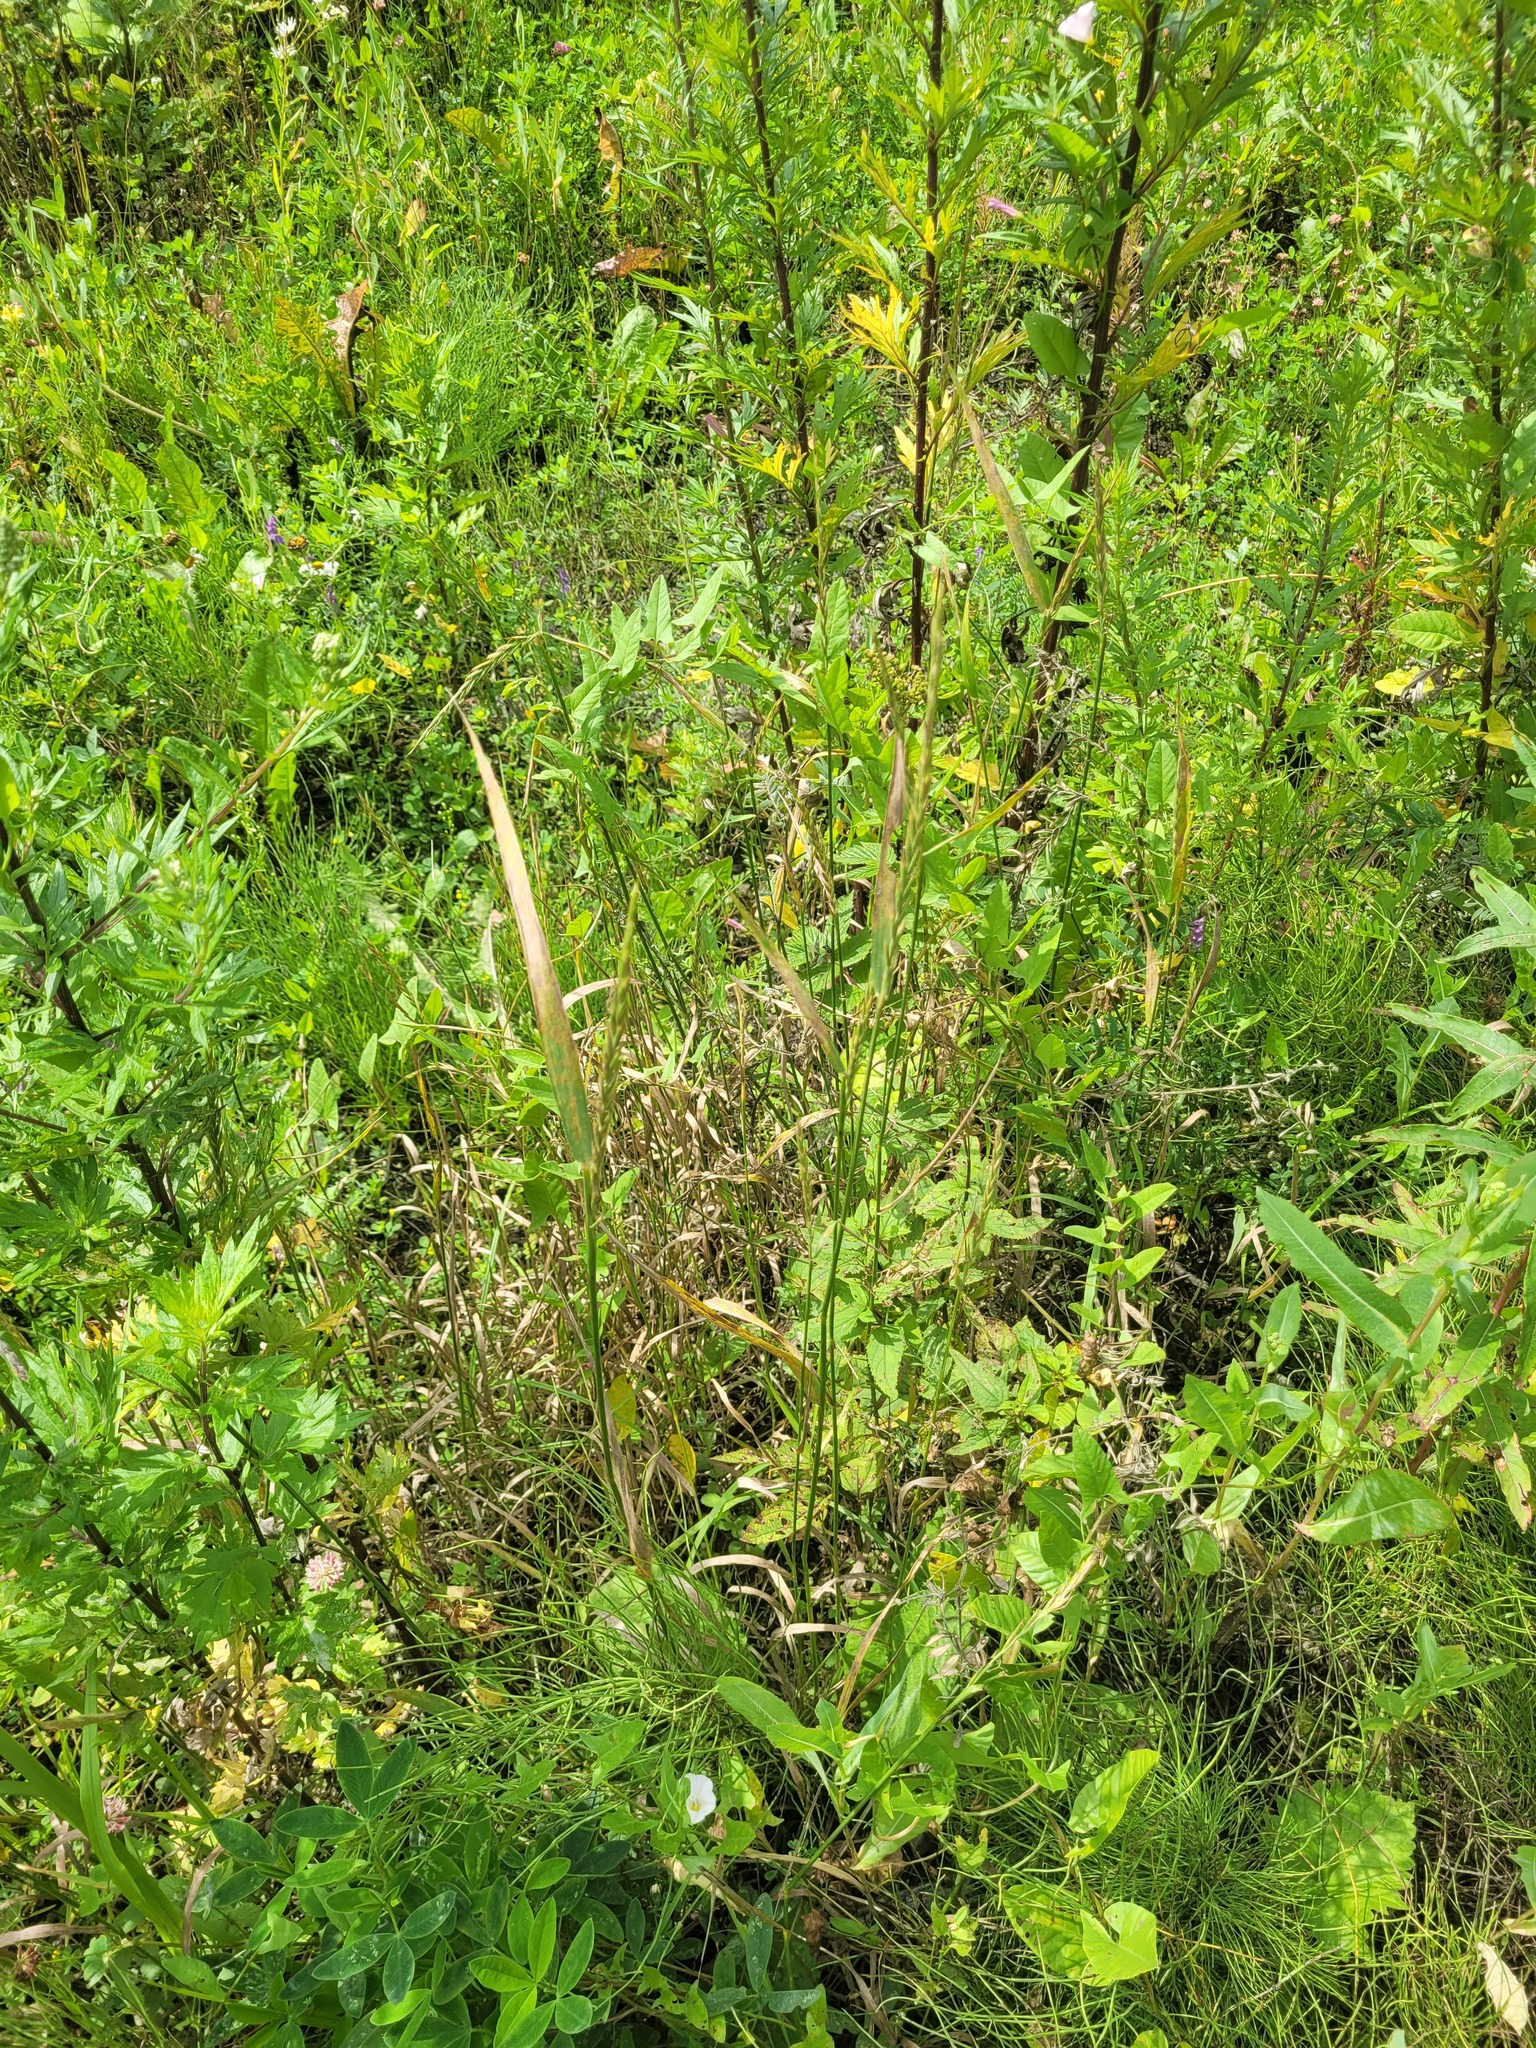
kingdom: Plantae
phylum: Tracheophyta
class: Liliopsida
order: Poales
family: Poaceae
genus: Elymus
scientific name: Elymus repens
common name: Quackgrass
